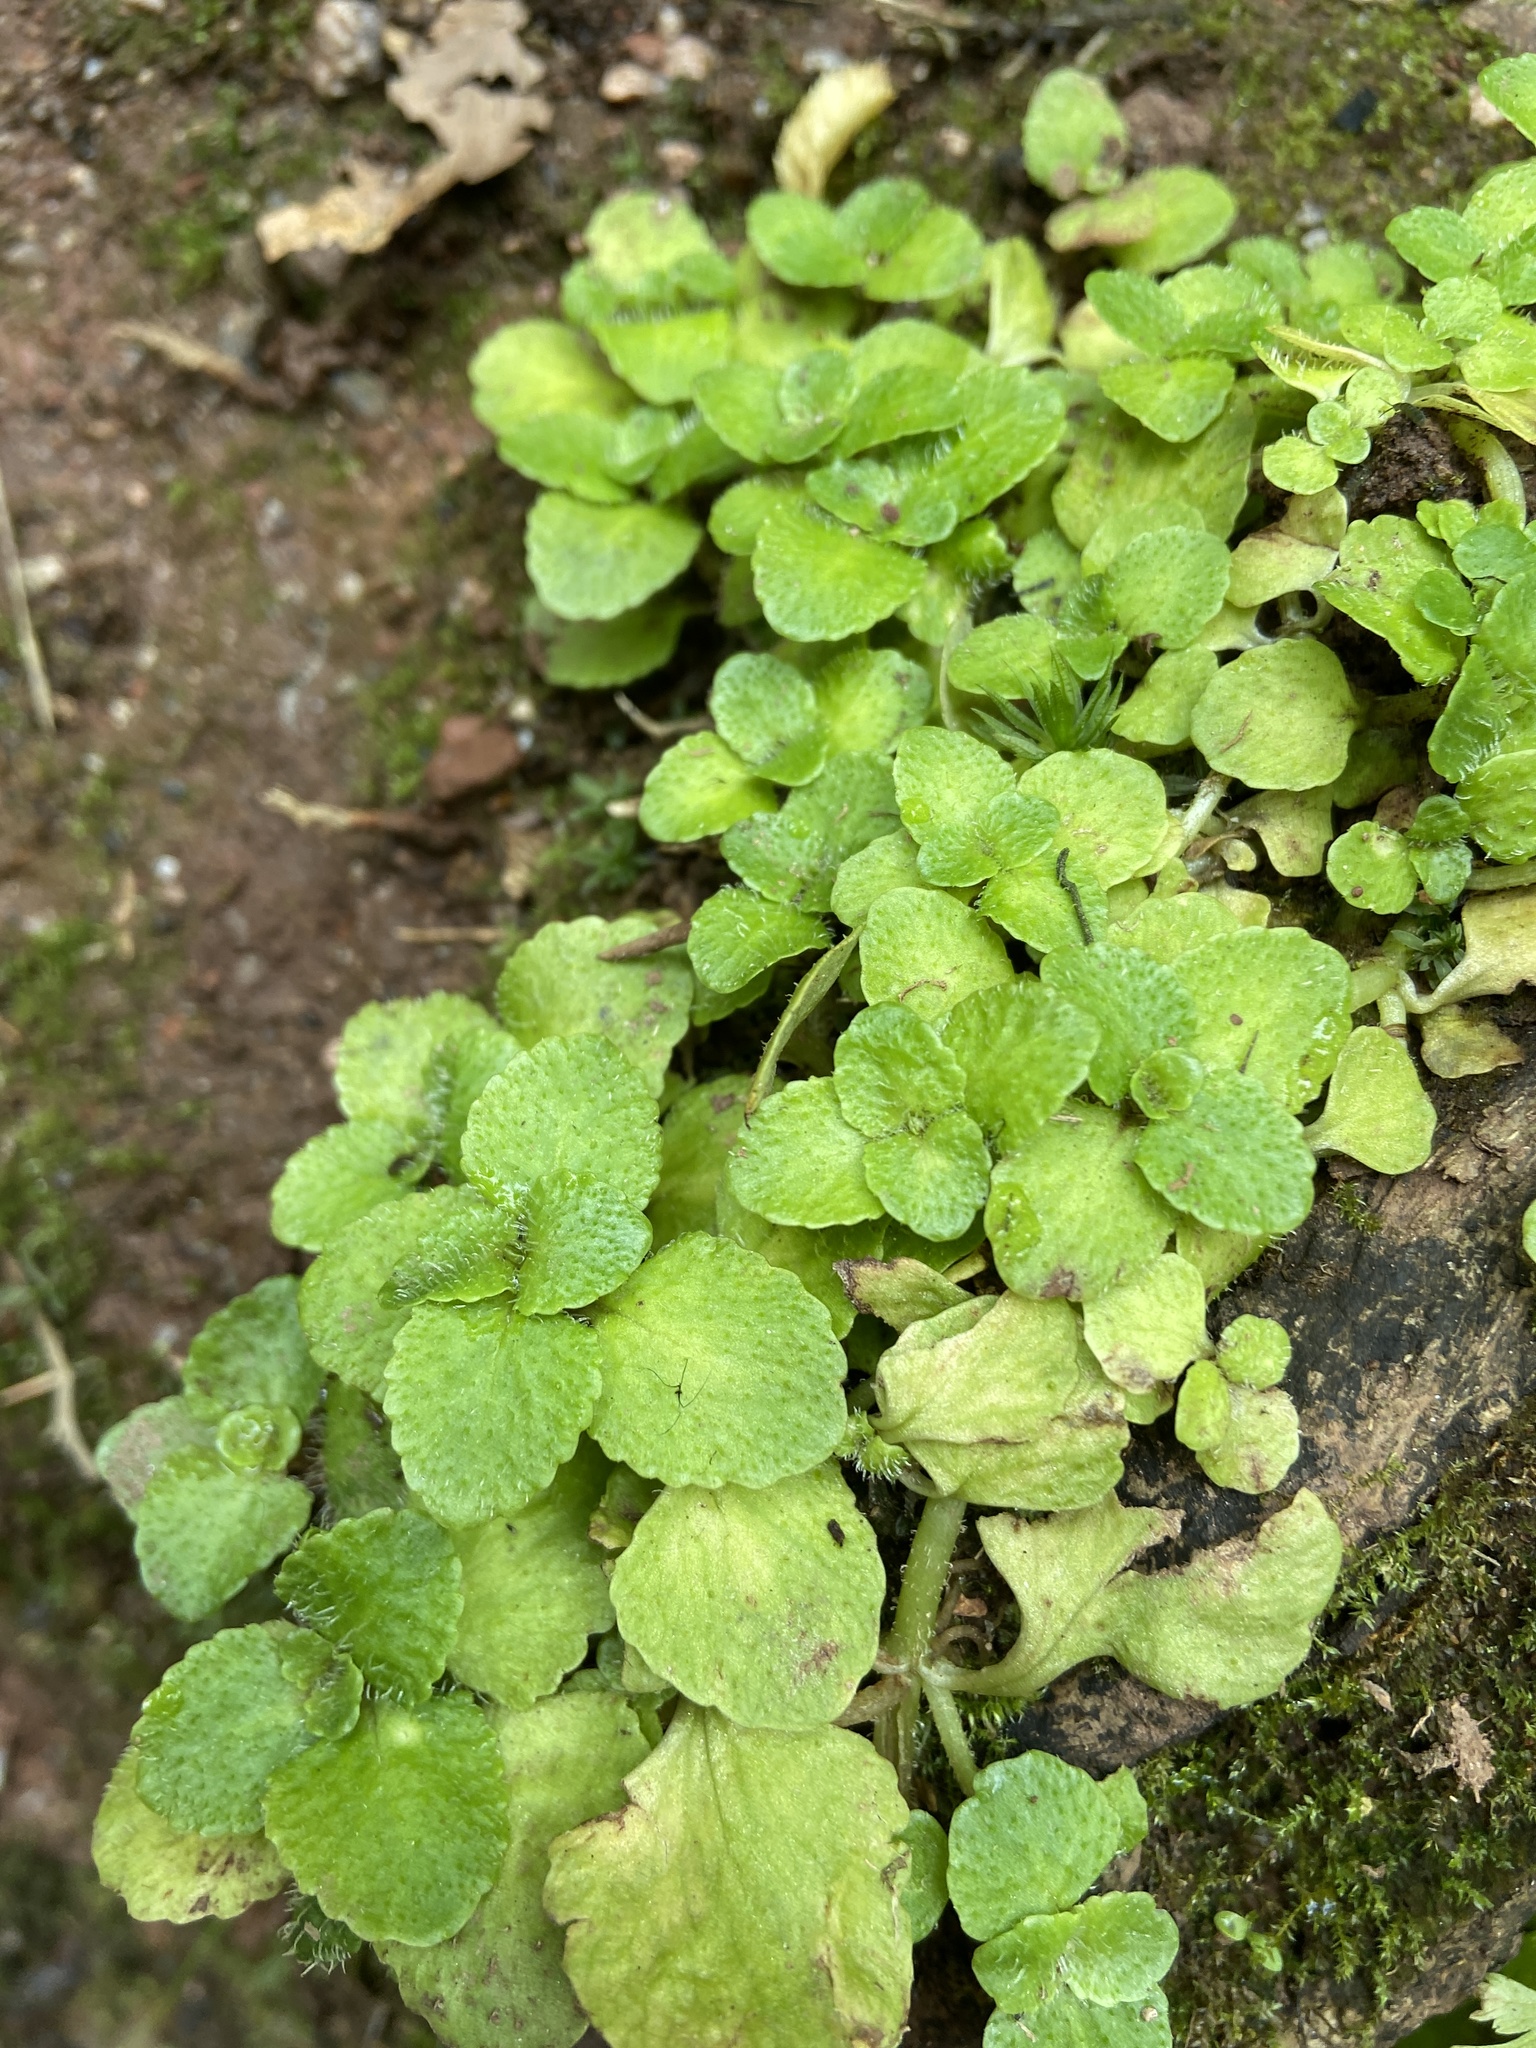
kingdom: Plantae
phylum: Tracheophyta
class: Magnoliopsida
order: Saxifragales
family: Saxifragaceae
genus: Chrysosplenium
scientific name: Chrysosplenium oppositifolium
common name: Opposite-leaved golden-saxifrage
